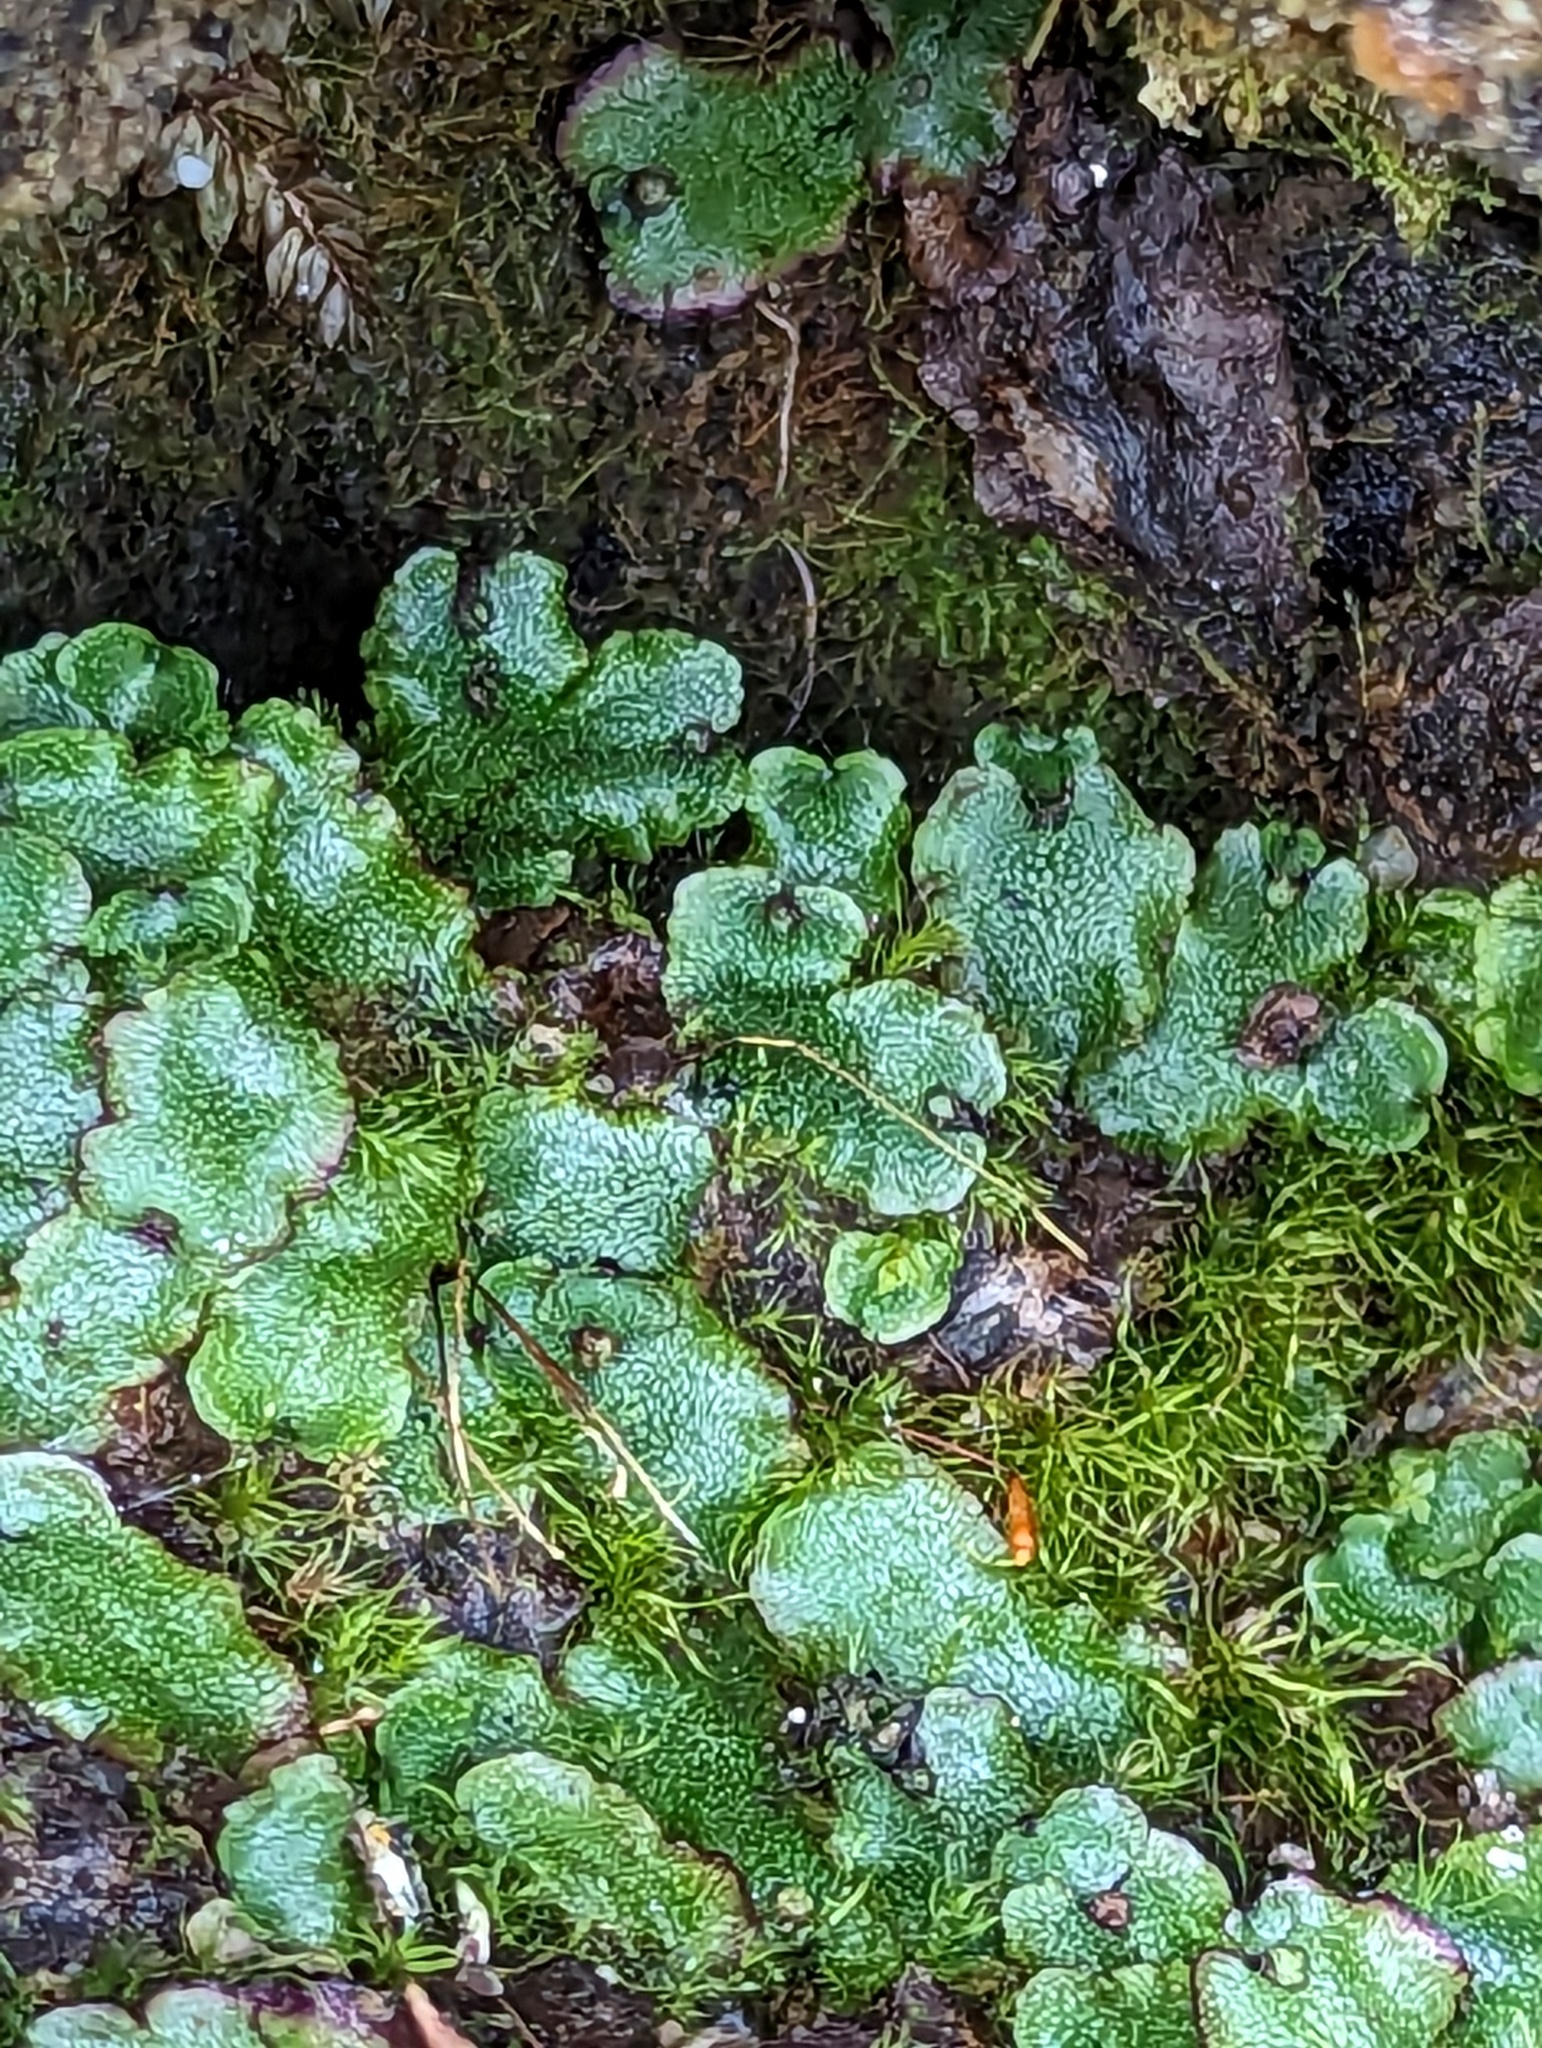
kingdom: Plantae
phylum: Marchantiophyta
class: Marchantiopsida
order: Marchantiales
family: Marchantiaceae
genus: Marchantia
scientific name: Marchantia quadrata
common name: Narrow mushroom-headed liverwort
